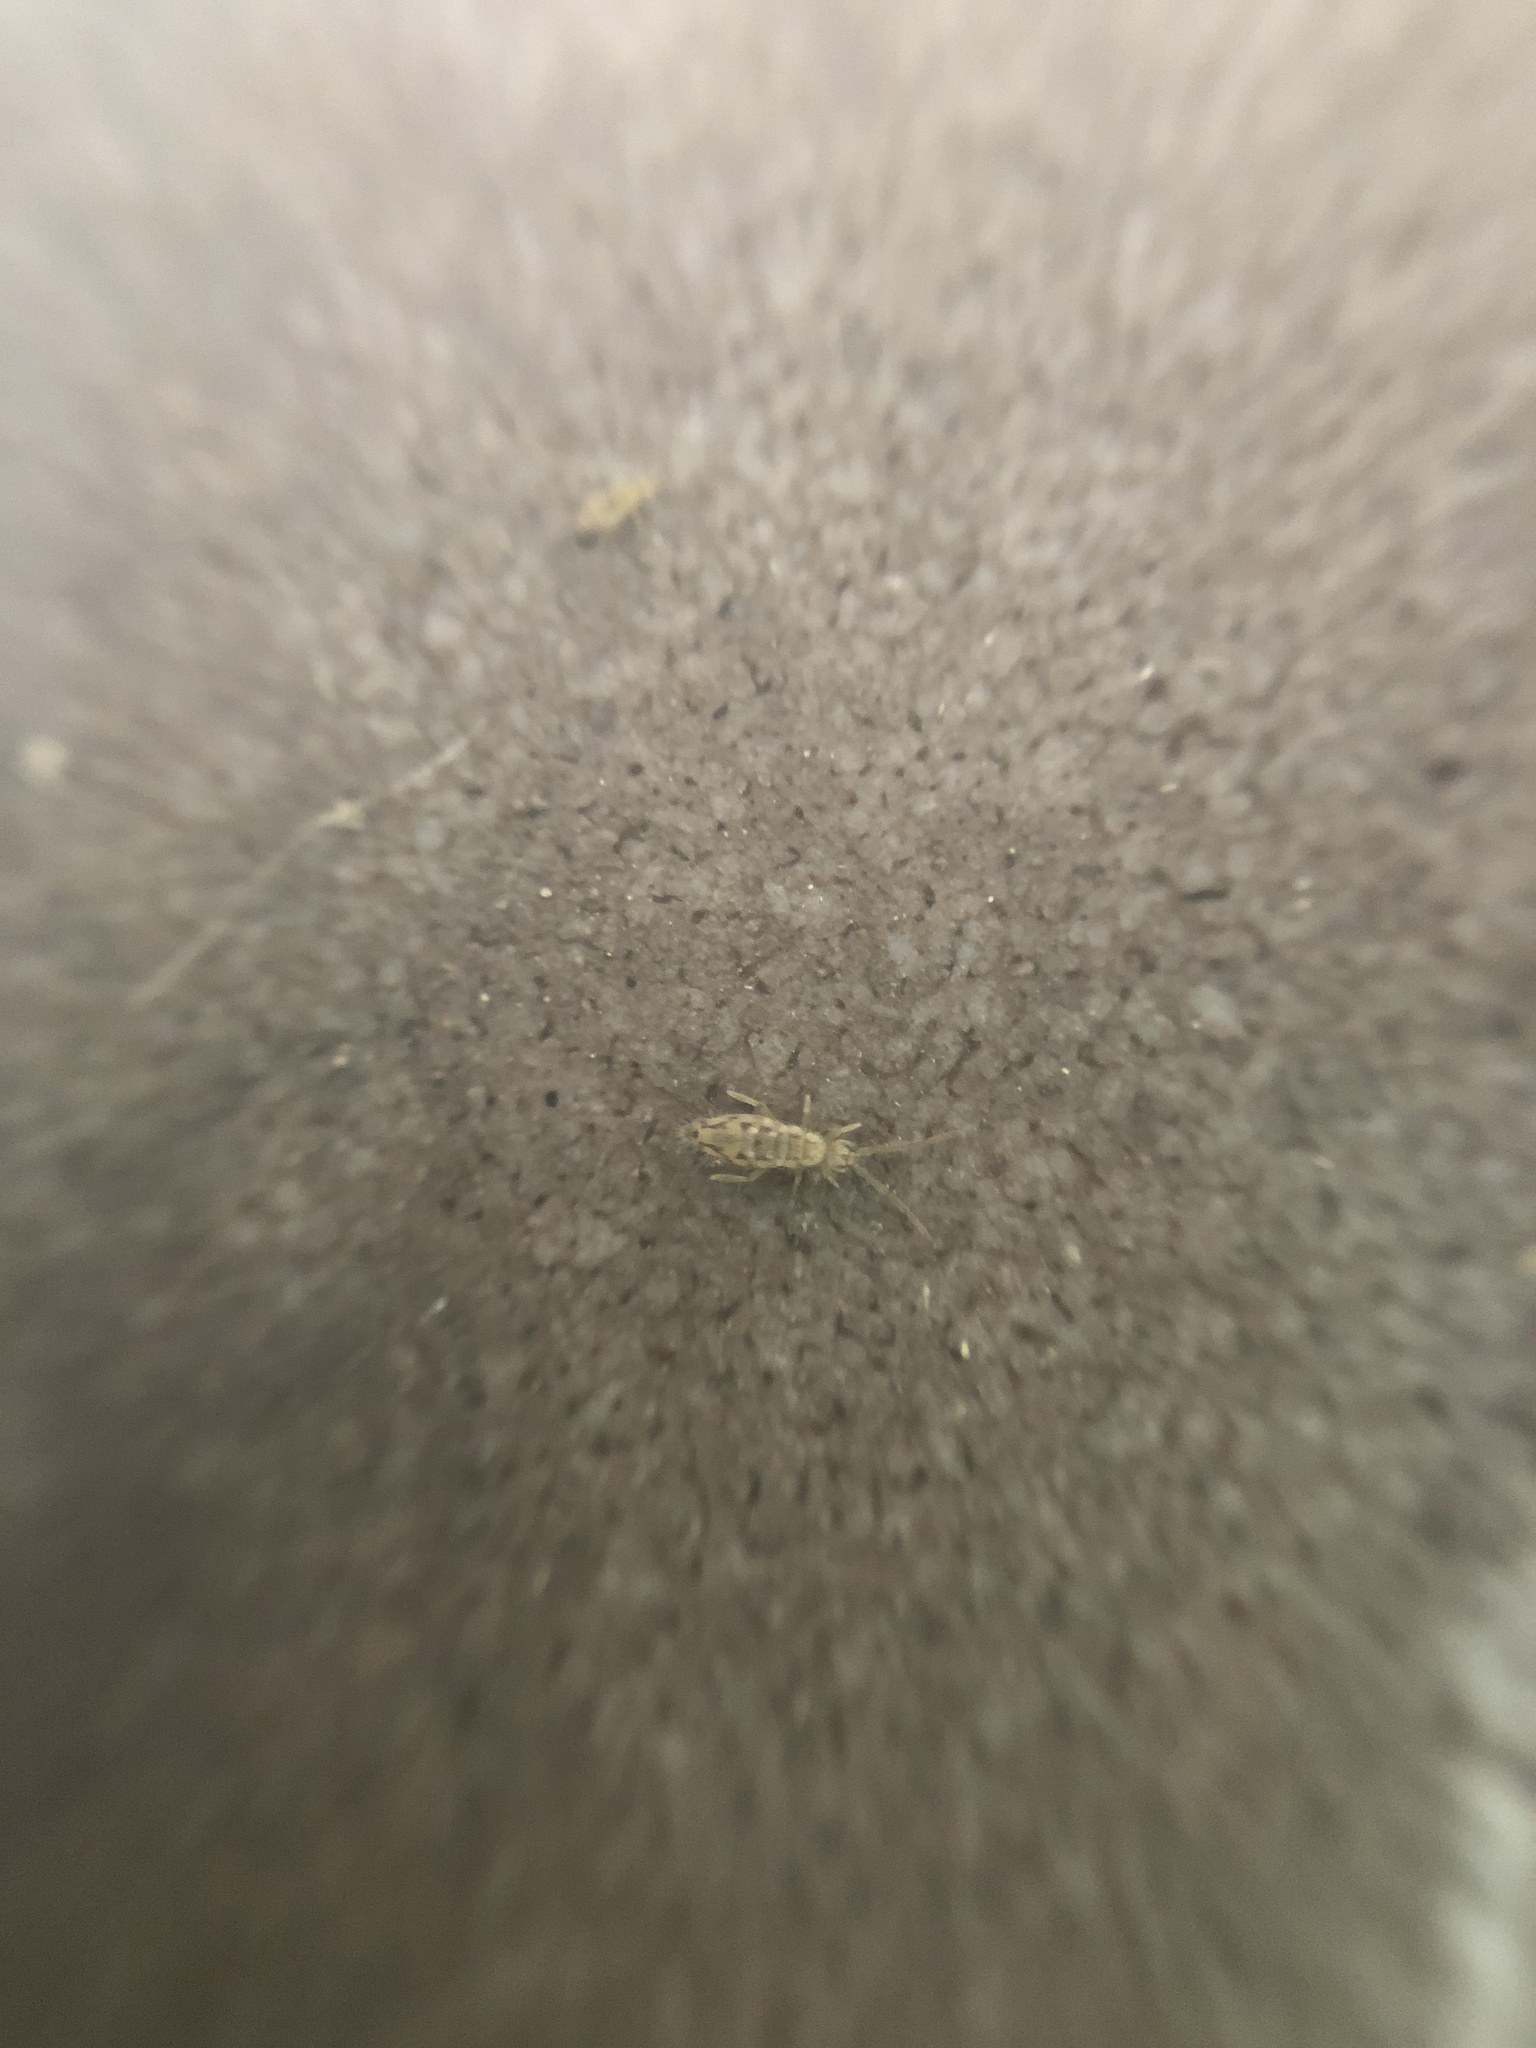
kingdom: Animalia
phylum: Arthropoda
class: Collembola
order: Entomobryomorpha
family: Entomobryidae
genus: Entomobrya
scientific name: Entomobrya intermedia
